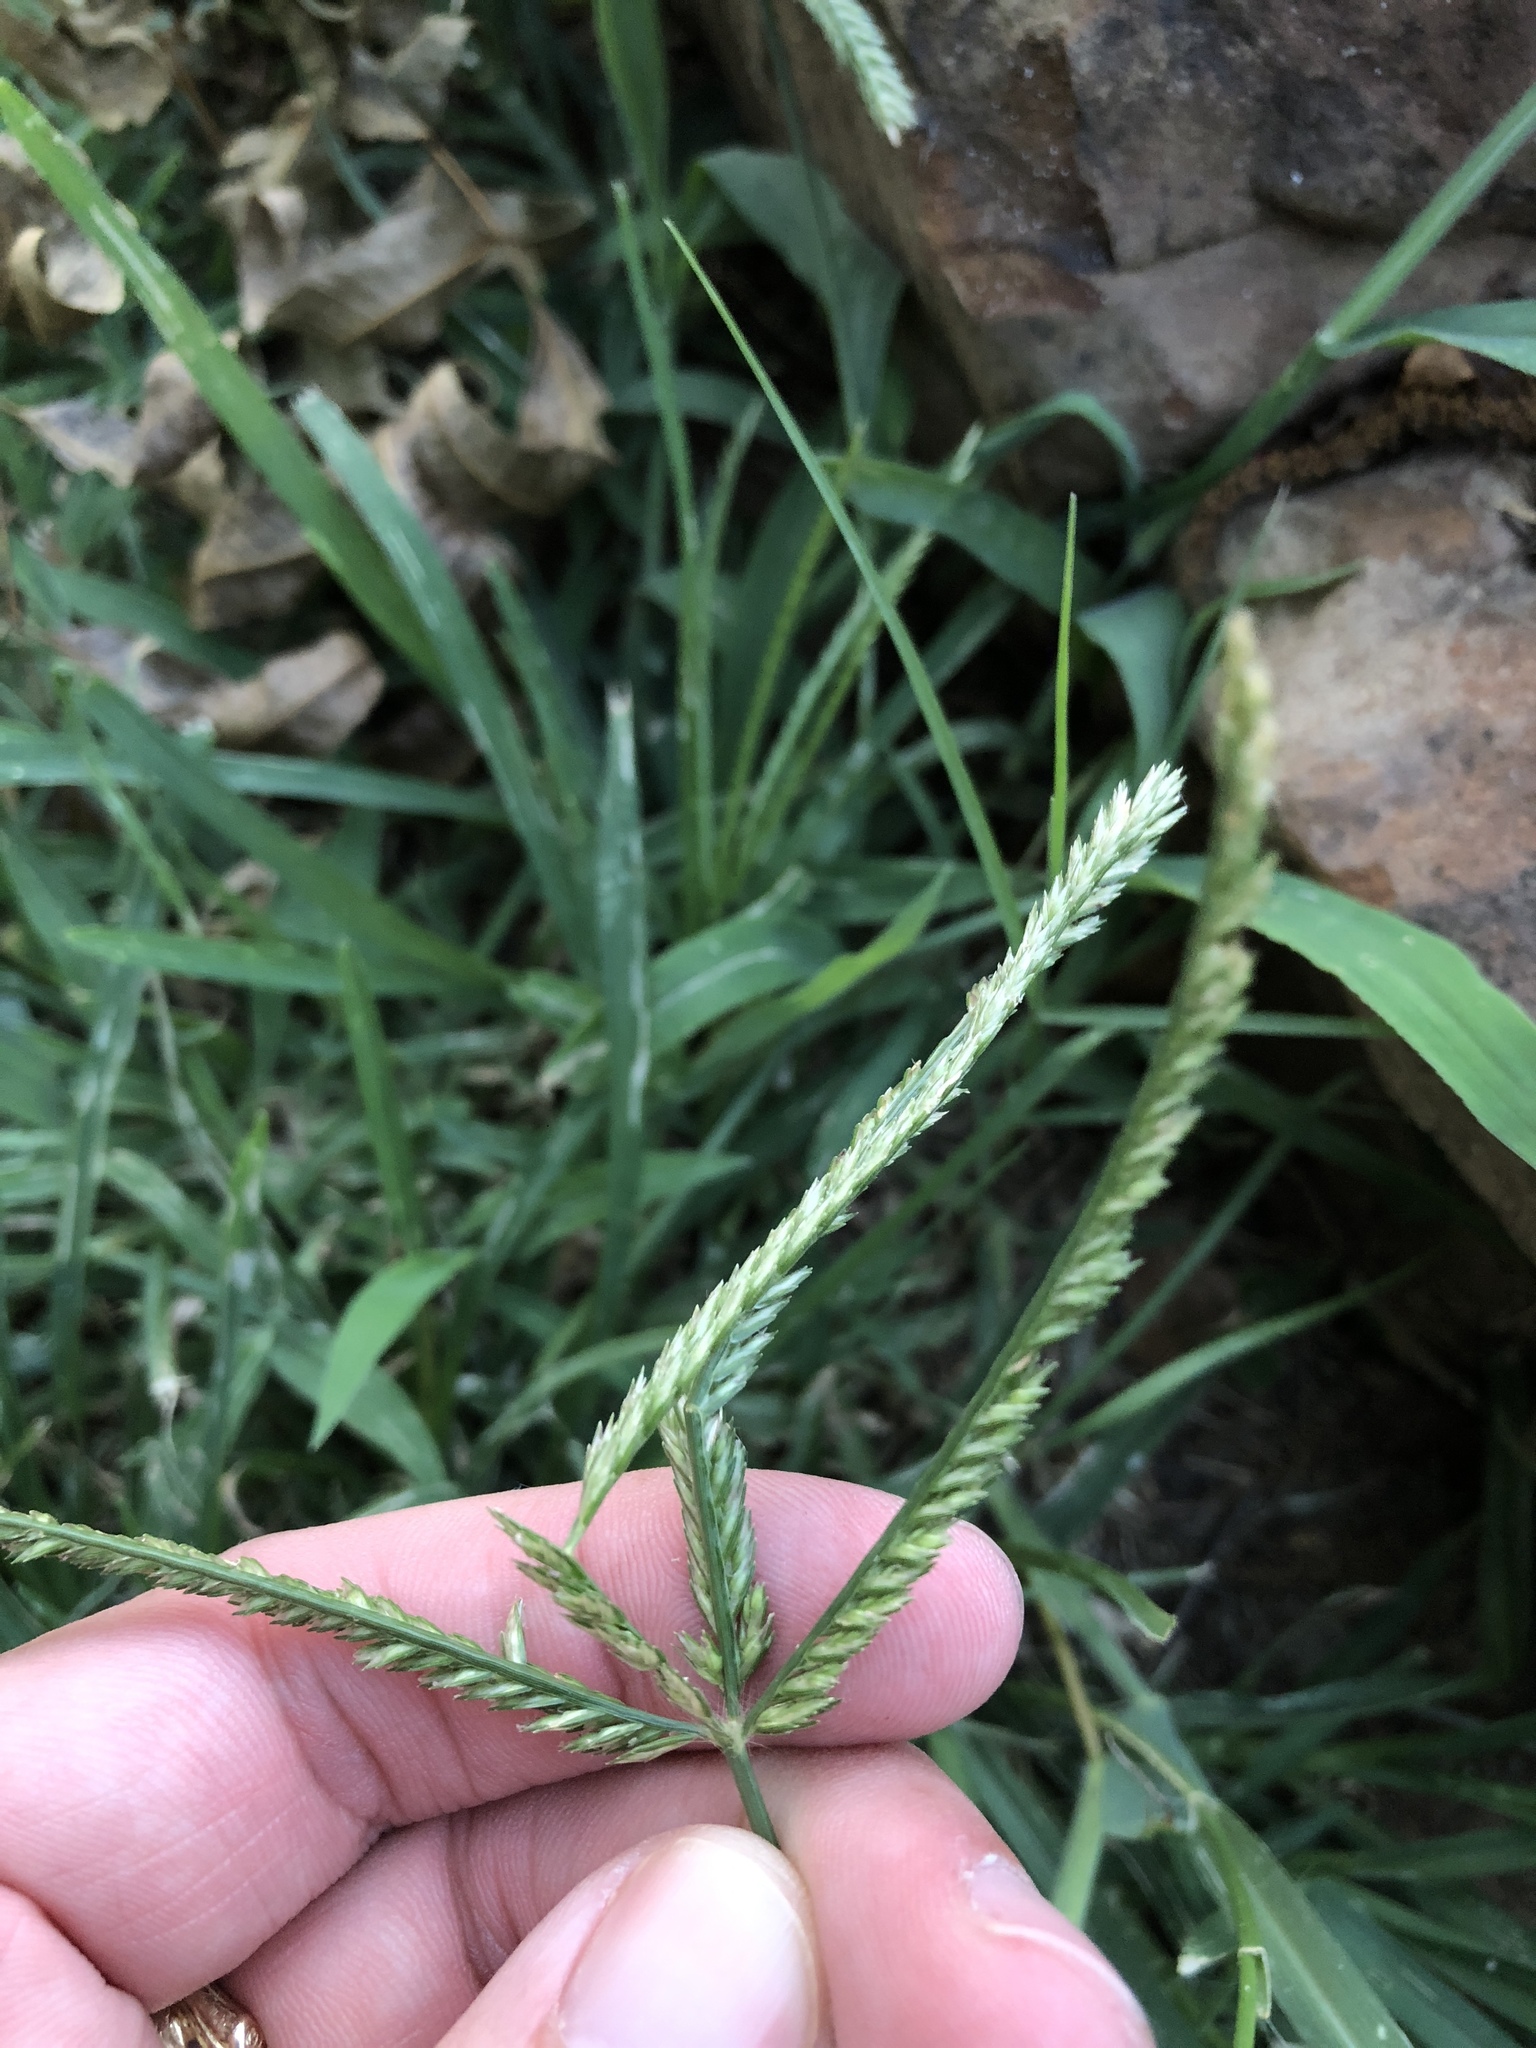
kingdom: Plantae
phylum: Tracheophyta
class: Liliopsida
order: Poales
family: Poaceae
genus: Eleusine
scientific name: Eleusine indica
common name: Yard-grass
